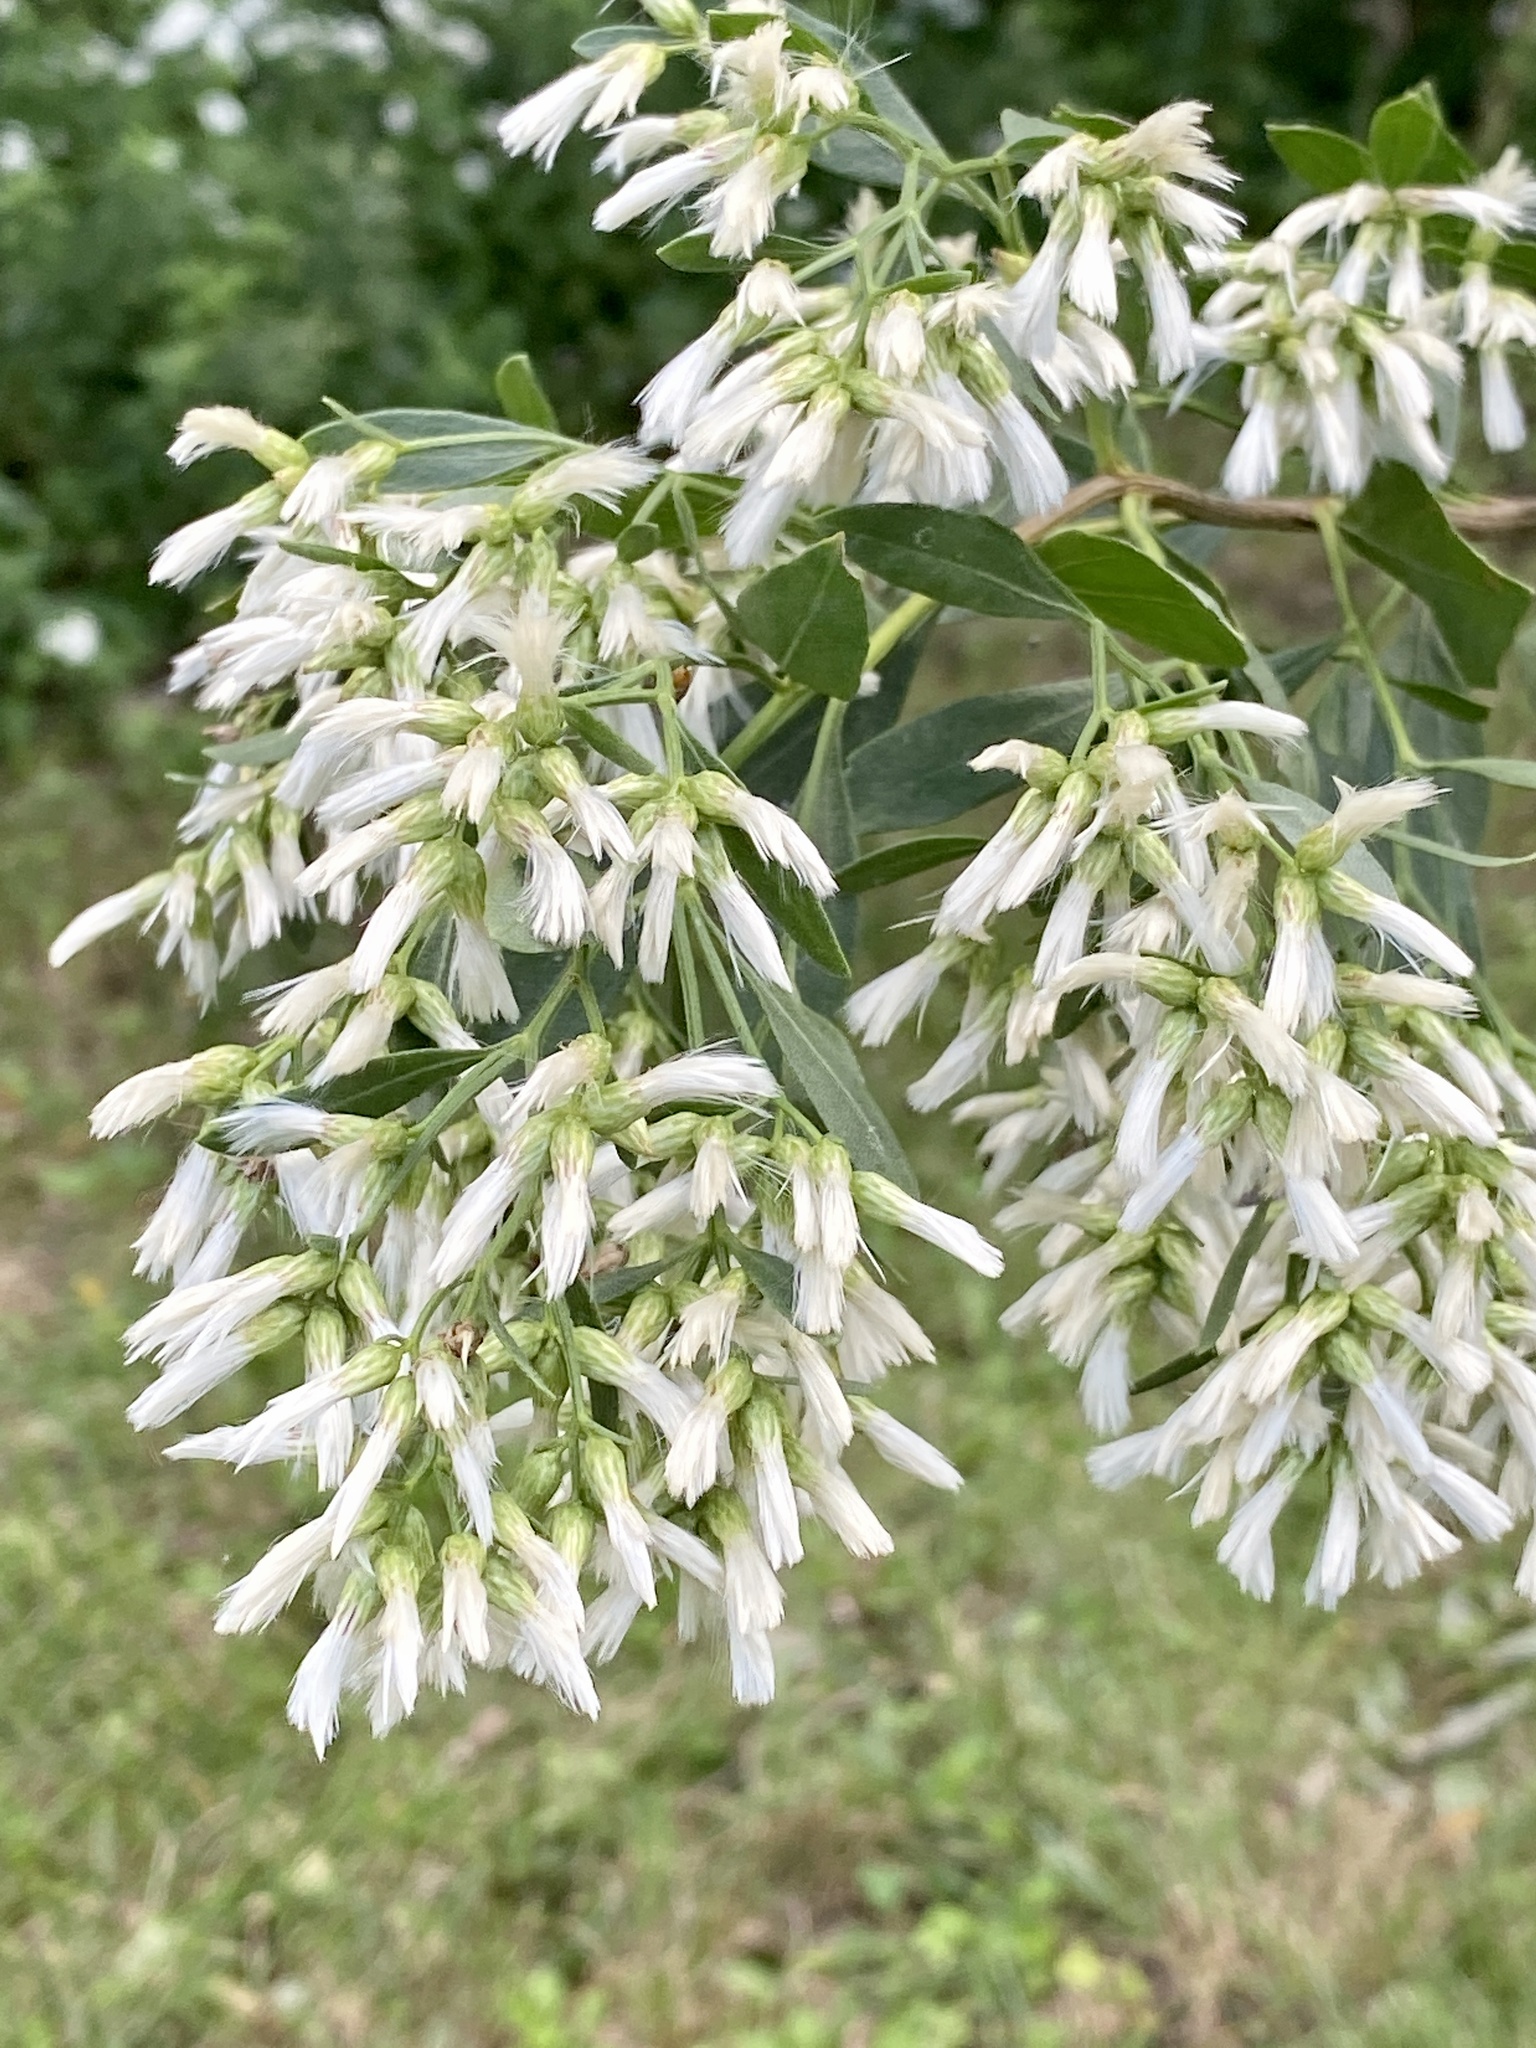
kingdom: Plantae
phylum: Tracheophyta
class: Magnoliopsida
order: Asterales
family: Asteraceae
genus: Baccharis
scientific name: Baccharis halimifolia
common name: Eastern baccharis
